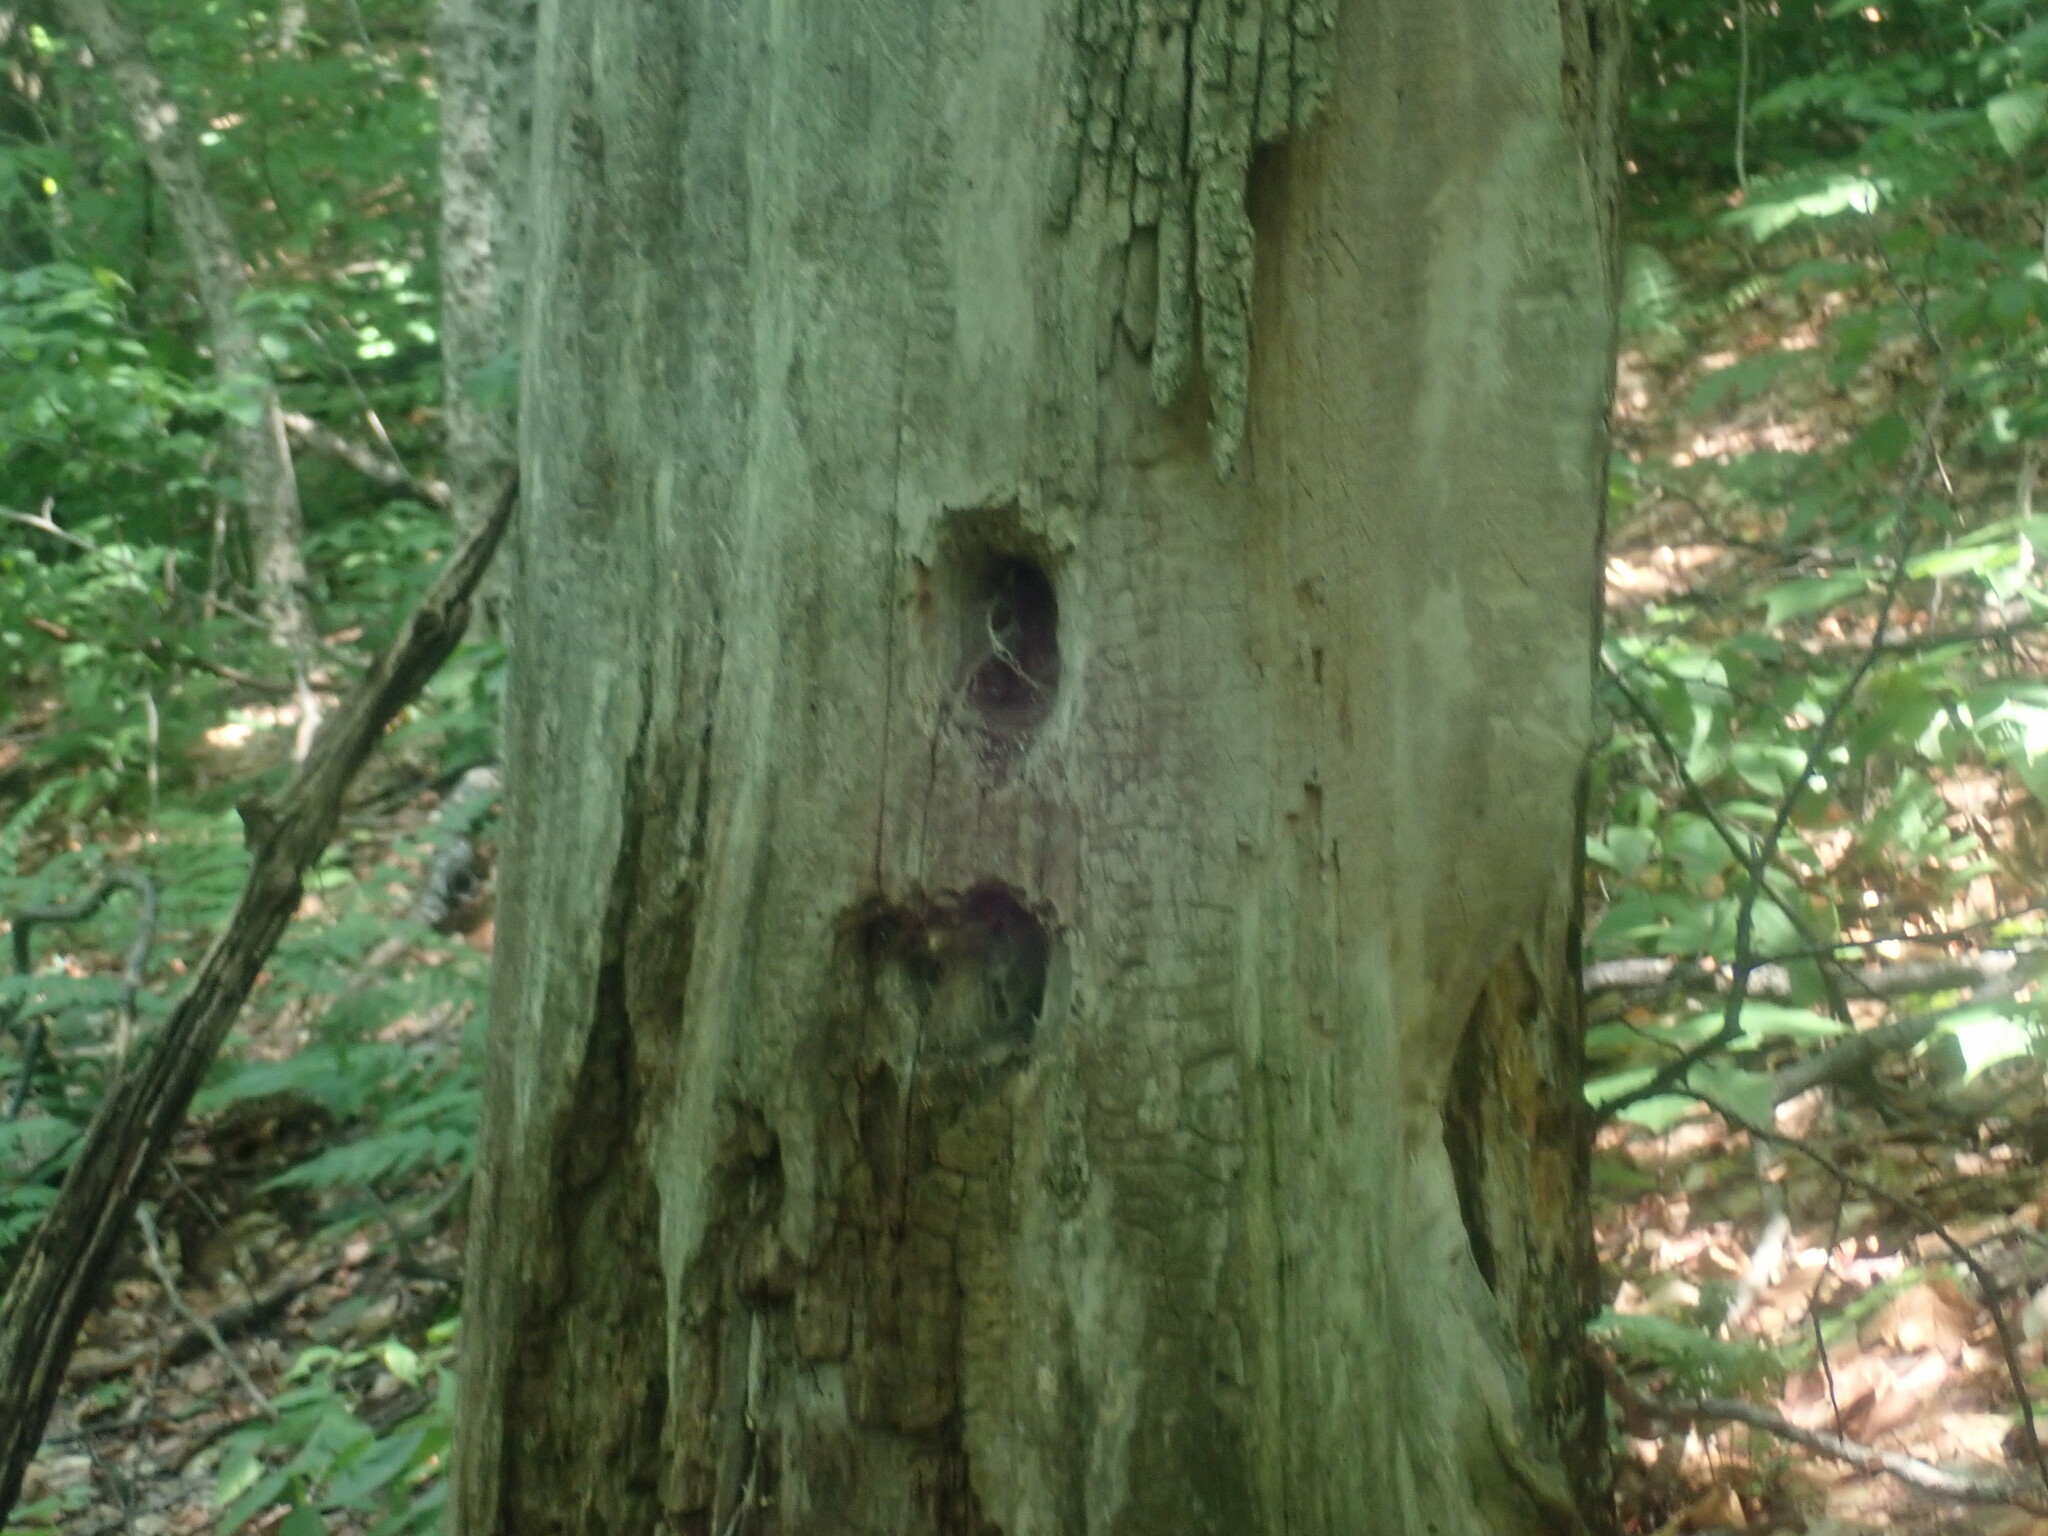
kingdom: Animalia
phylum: Chordata
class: Aves
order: Piciformes
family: Picidae
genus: Dryocopus
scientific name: Dryocopus pileatus
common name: Pileated woodpecker
